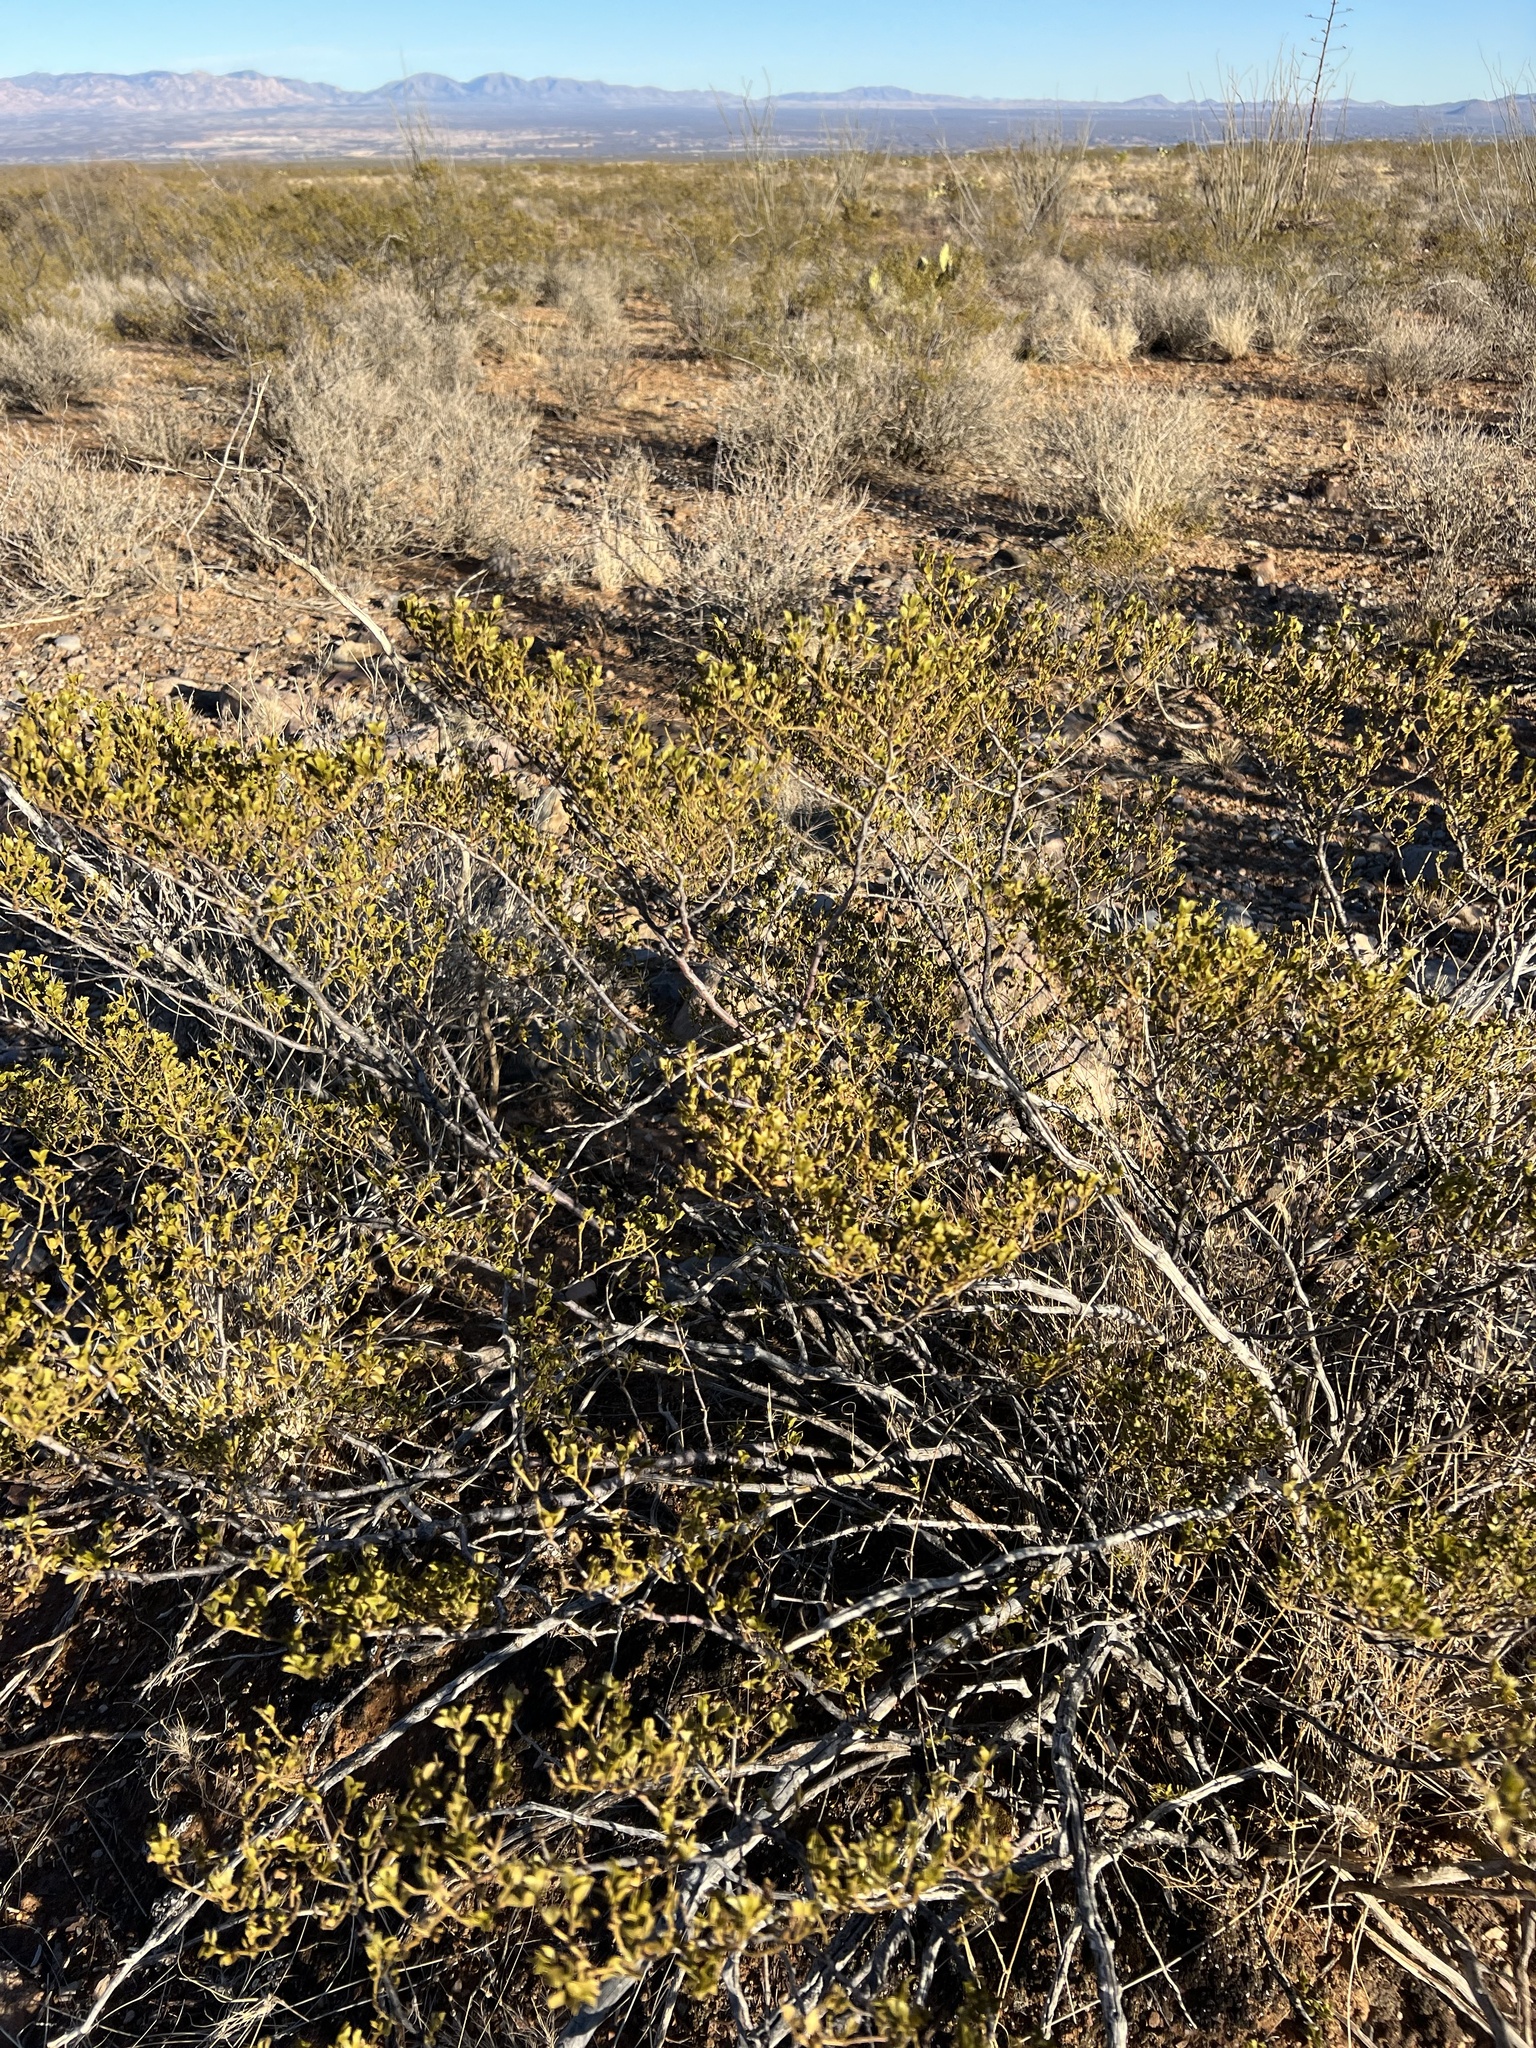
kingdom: Plantae
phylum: Tracheophyta
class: Magnoliopsida
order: Zygophyllales
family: Zygophyllaceae
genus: Larrea
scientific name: Larrea tridentata
